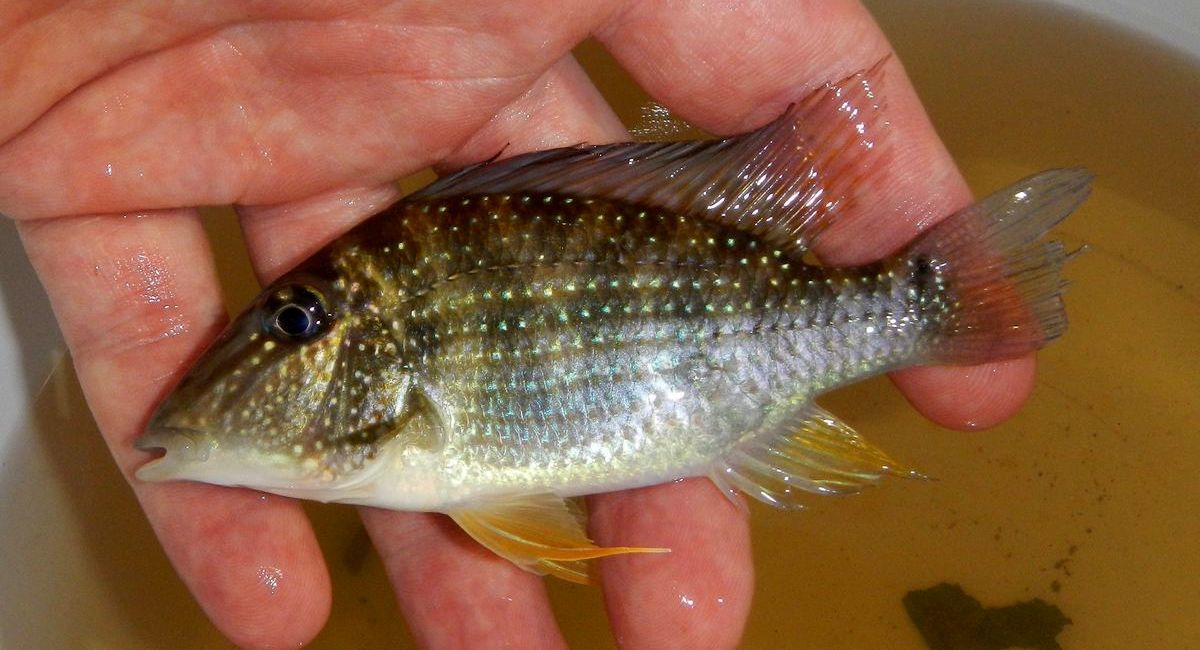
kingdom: Animalia
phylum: Chordata
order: Perciformes
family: Cichlidae
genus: Satanoperca
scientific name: Satanoperca leucosticta
